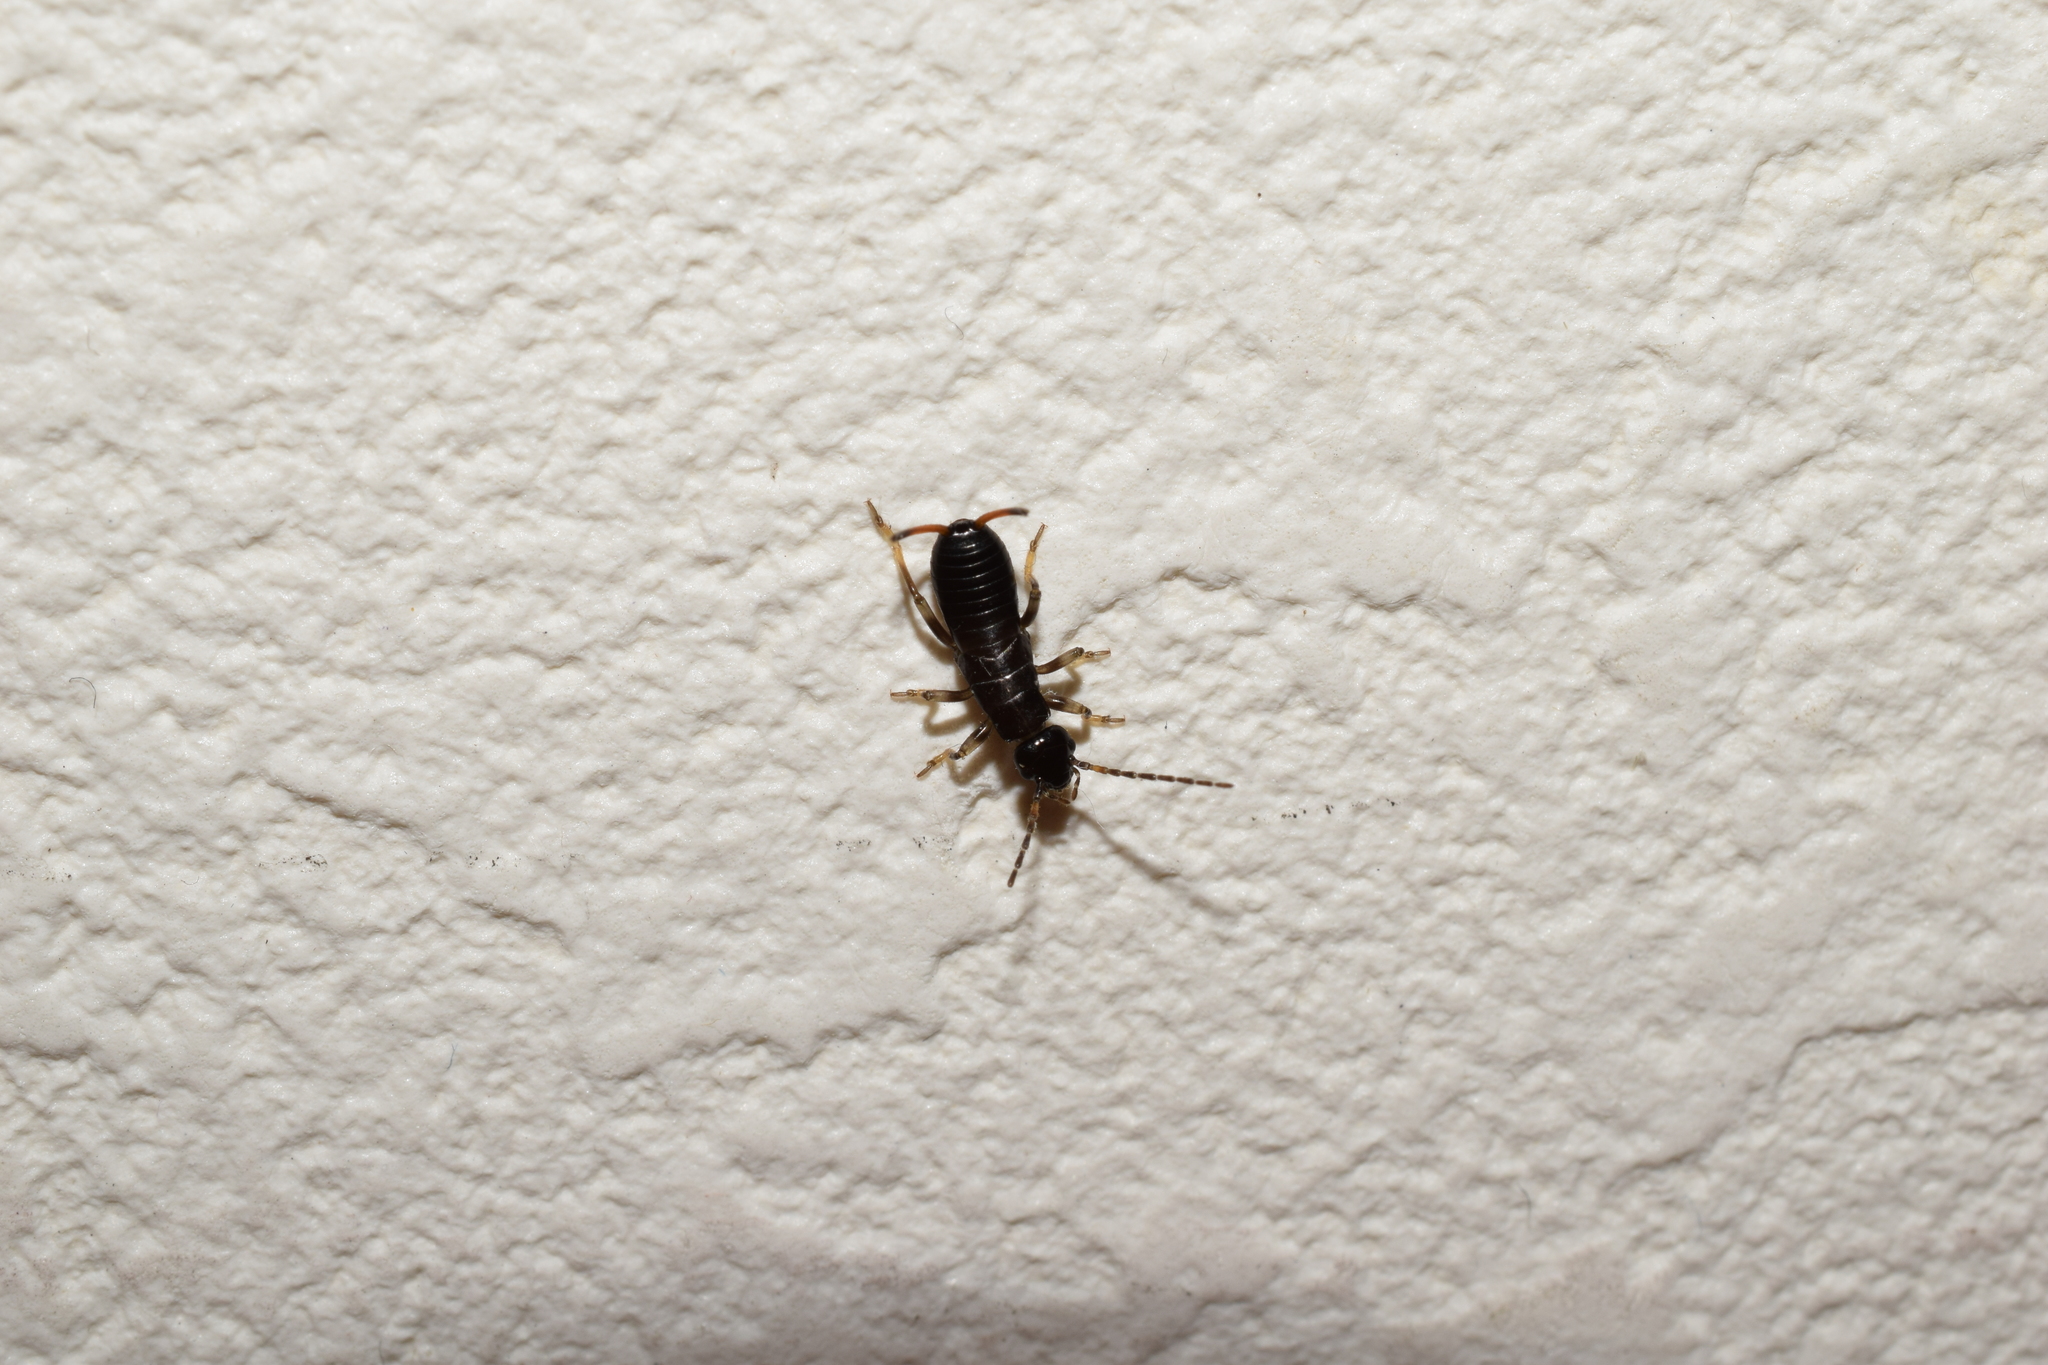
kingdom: Animalia
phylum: Arthropoda
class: Insecta
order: Dermaptera
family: Forficulidae
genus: Anechura
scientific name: Anechura harmandi
